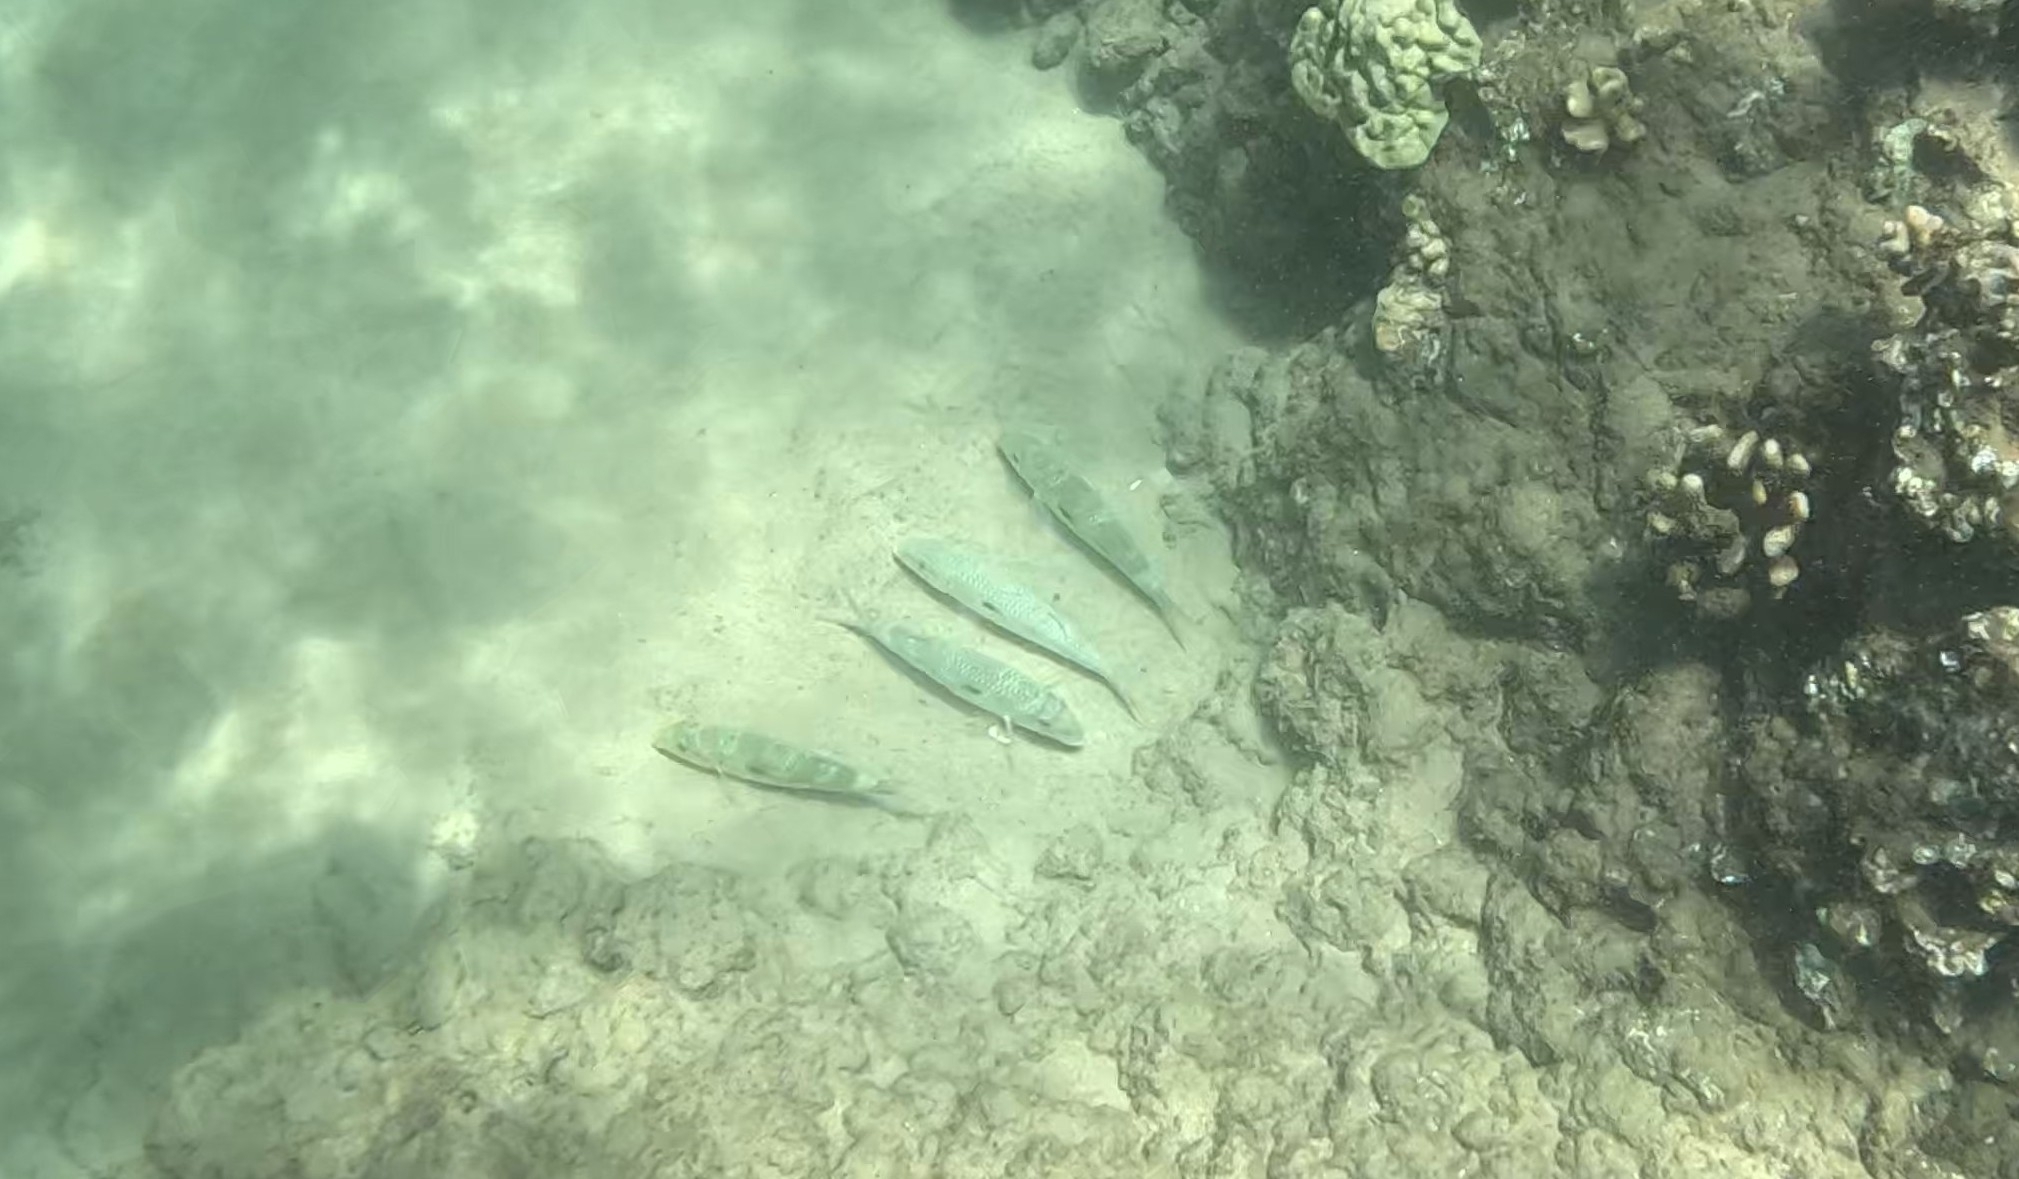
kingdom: Animalia
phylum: Chordata
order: Perciformes
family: Mullidae
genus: Mulloidichthys
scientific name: Mulloidichthys flavolineatus
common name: Yellowstripe goatfish
